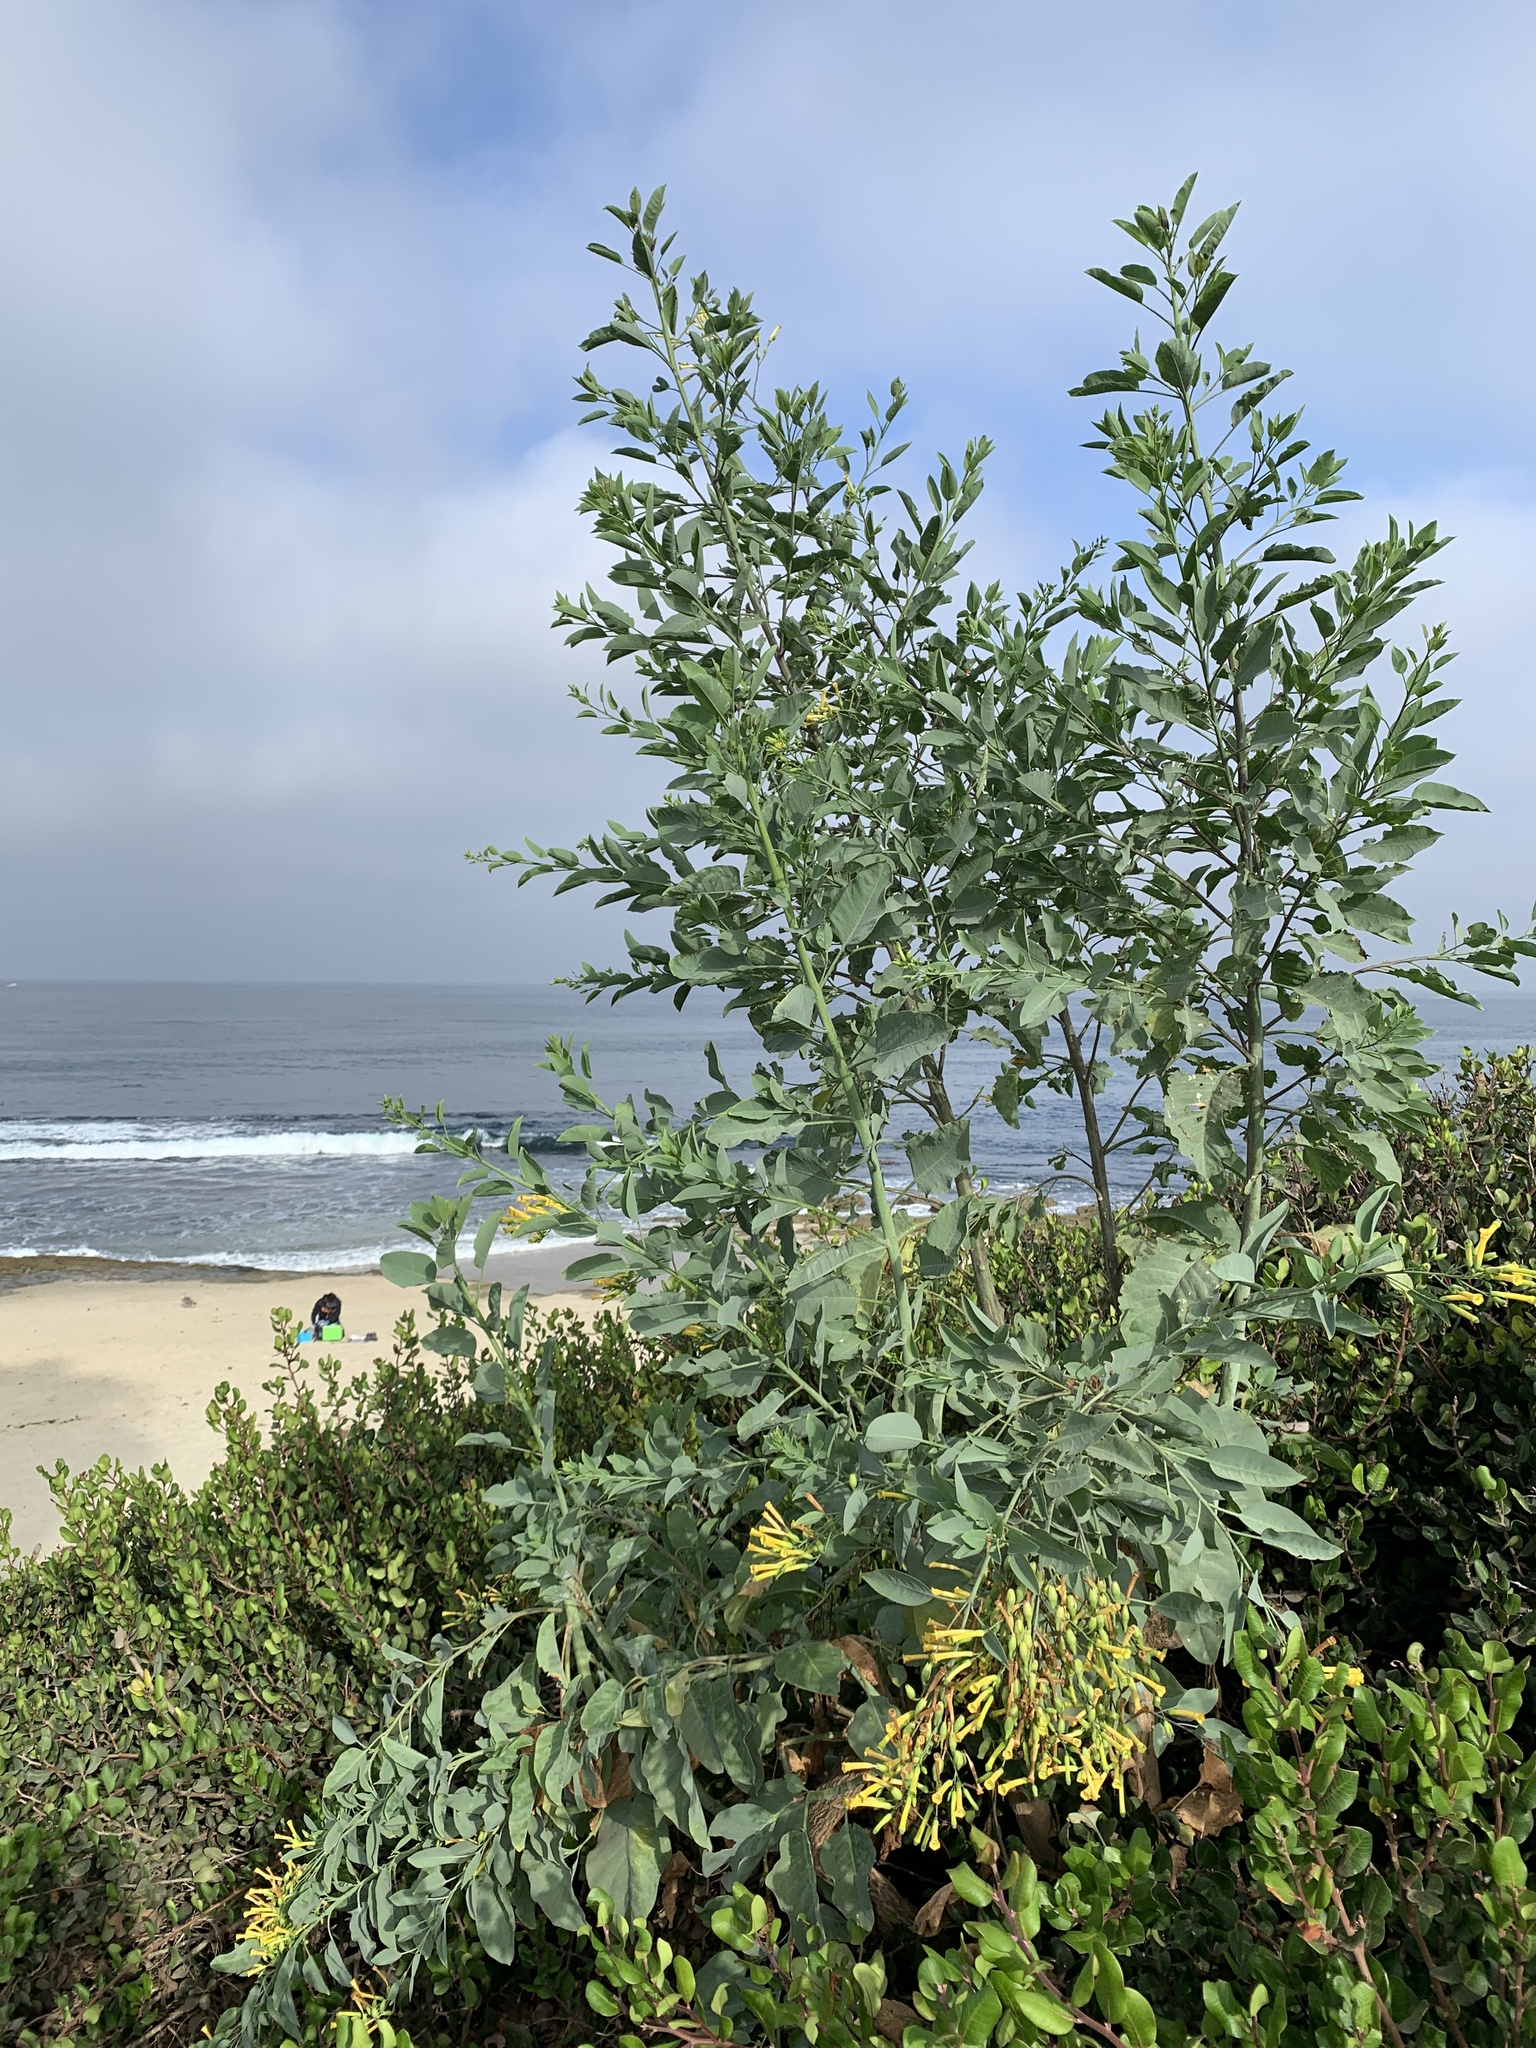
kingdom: Plantae
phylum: Tracheophyta
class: Magnoliopsida
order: Solanales
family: Solanaceae
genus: Nicotiana
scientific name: Nicotiana glauca
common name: Tree tobacco
